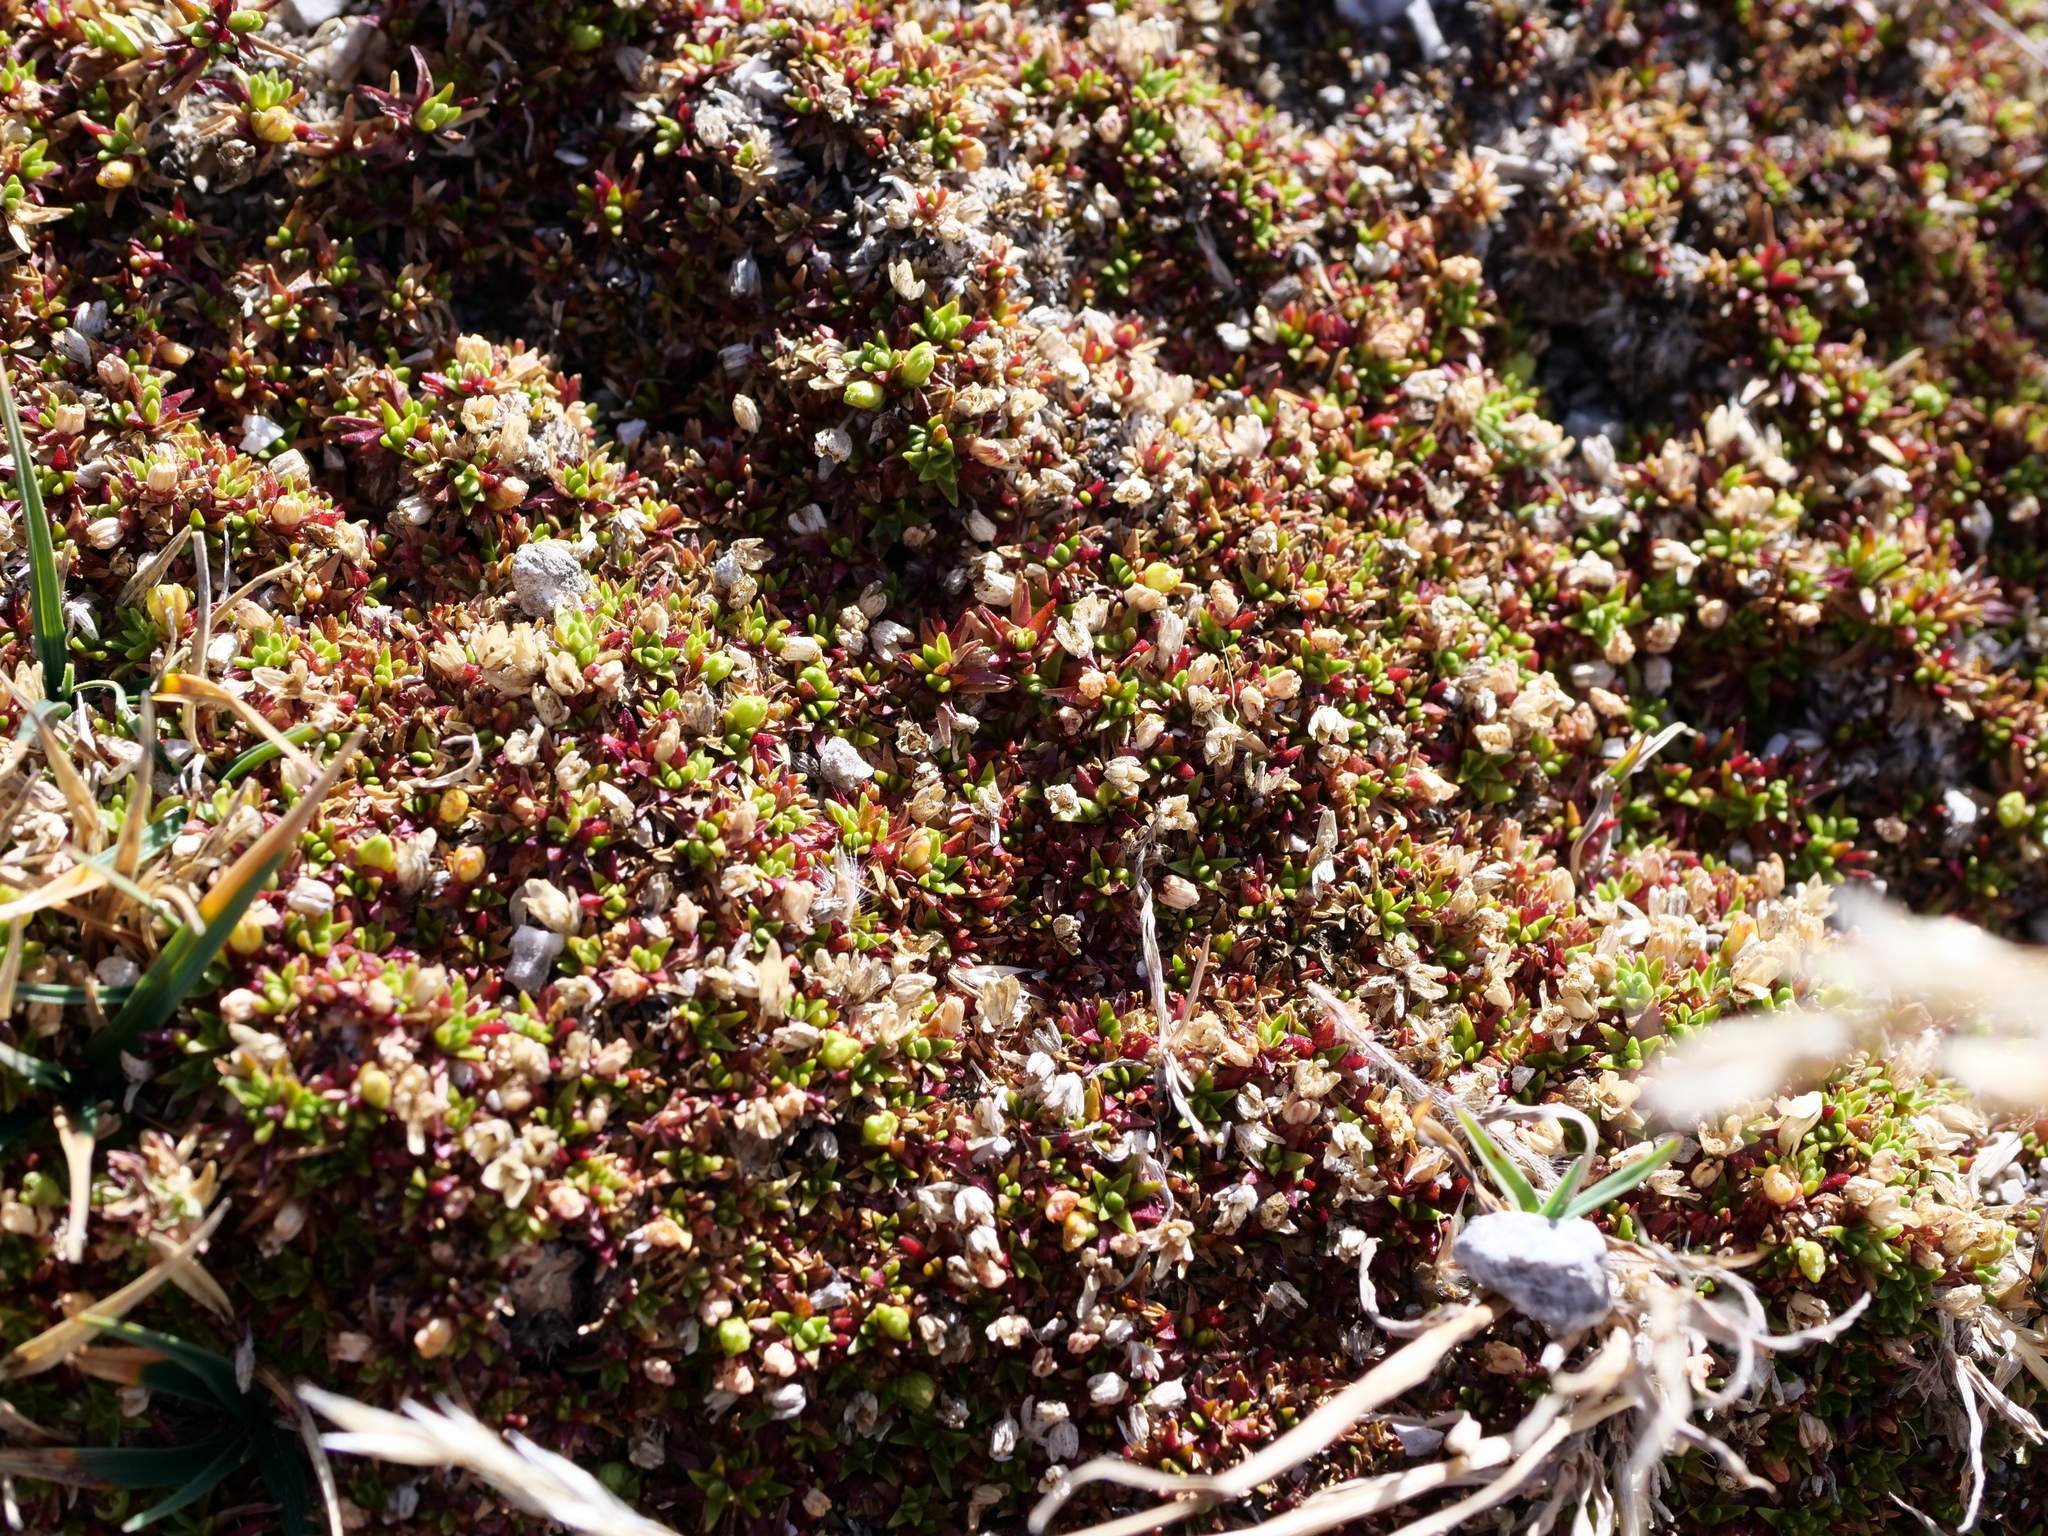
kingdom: Plantae
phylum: Tracheophyta
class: Magnoliopsida
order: Caryophyllales
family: Caryophyllaceae
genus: Cherleria
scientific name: Cherleria sedoides
